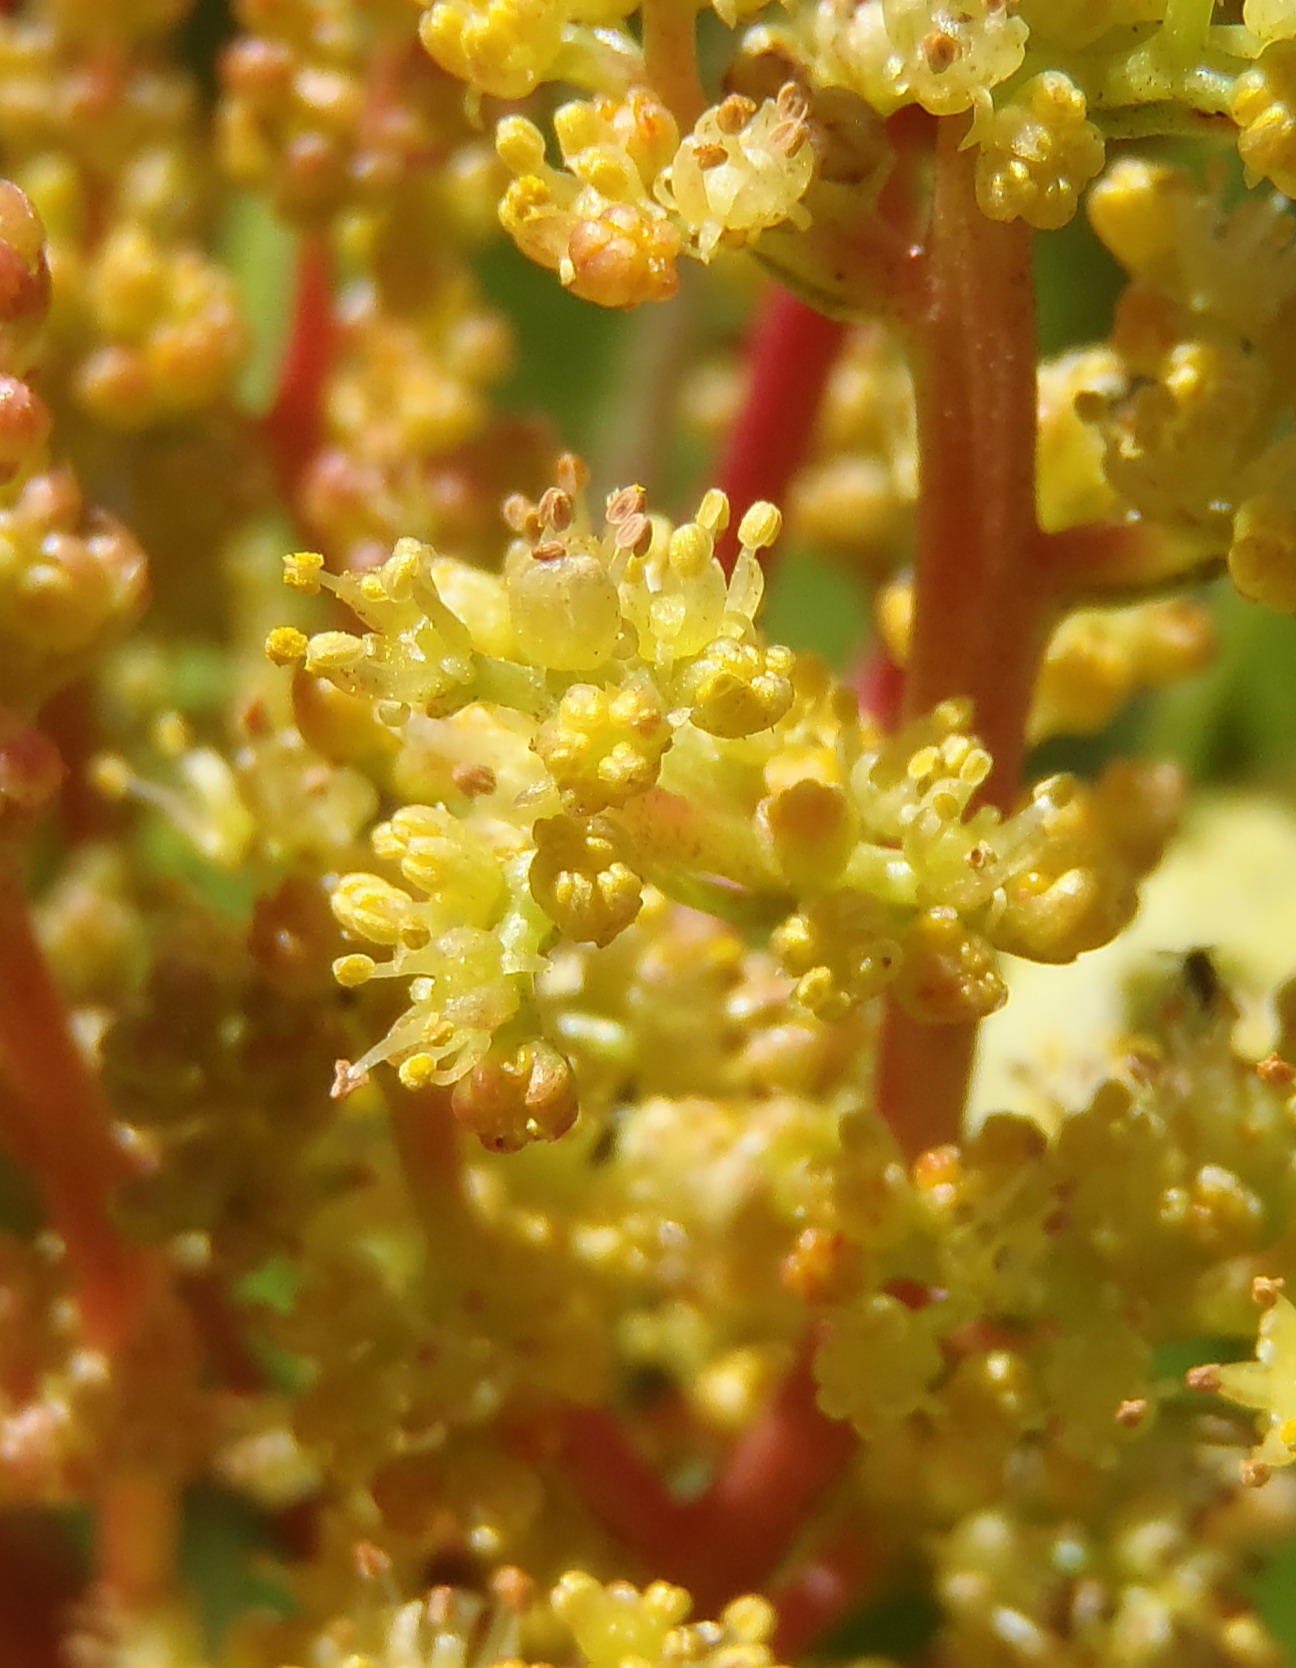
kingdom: Plantae
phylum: Tracheophyta
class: Magnoliopsida
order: Sapindales
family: Anacardiaceae
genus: Laurophyllus
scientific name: Laurophyllus capensis
